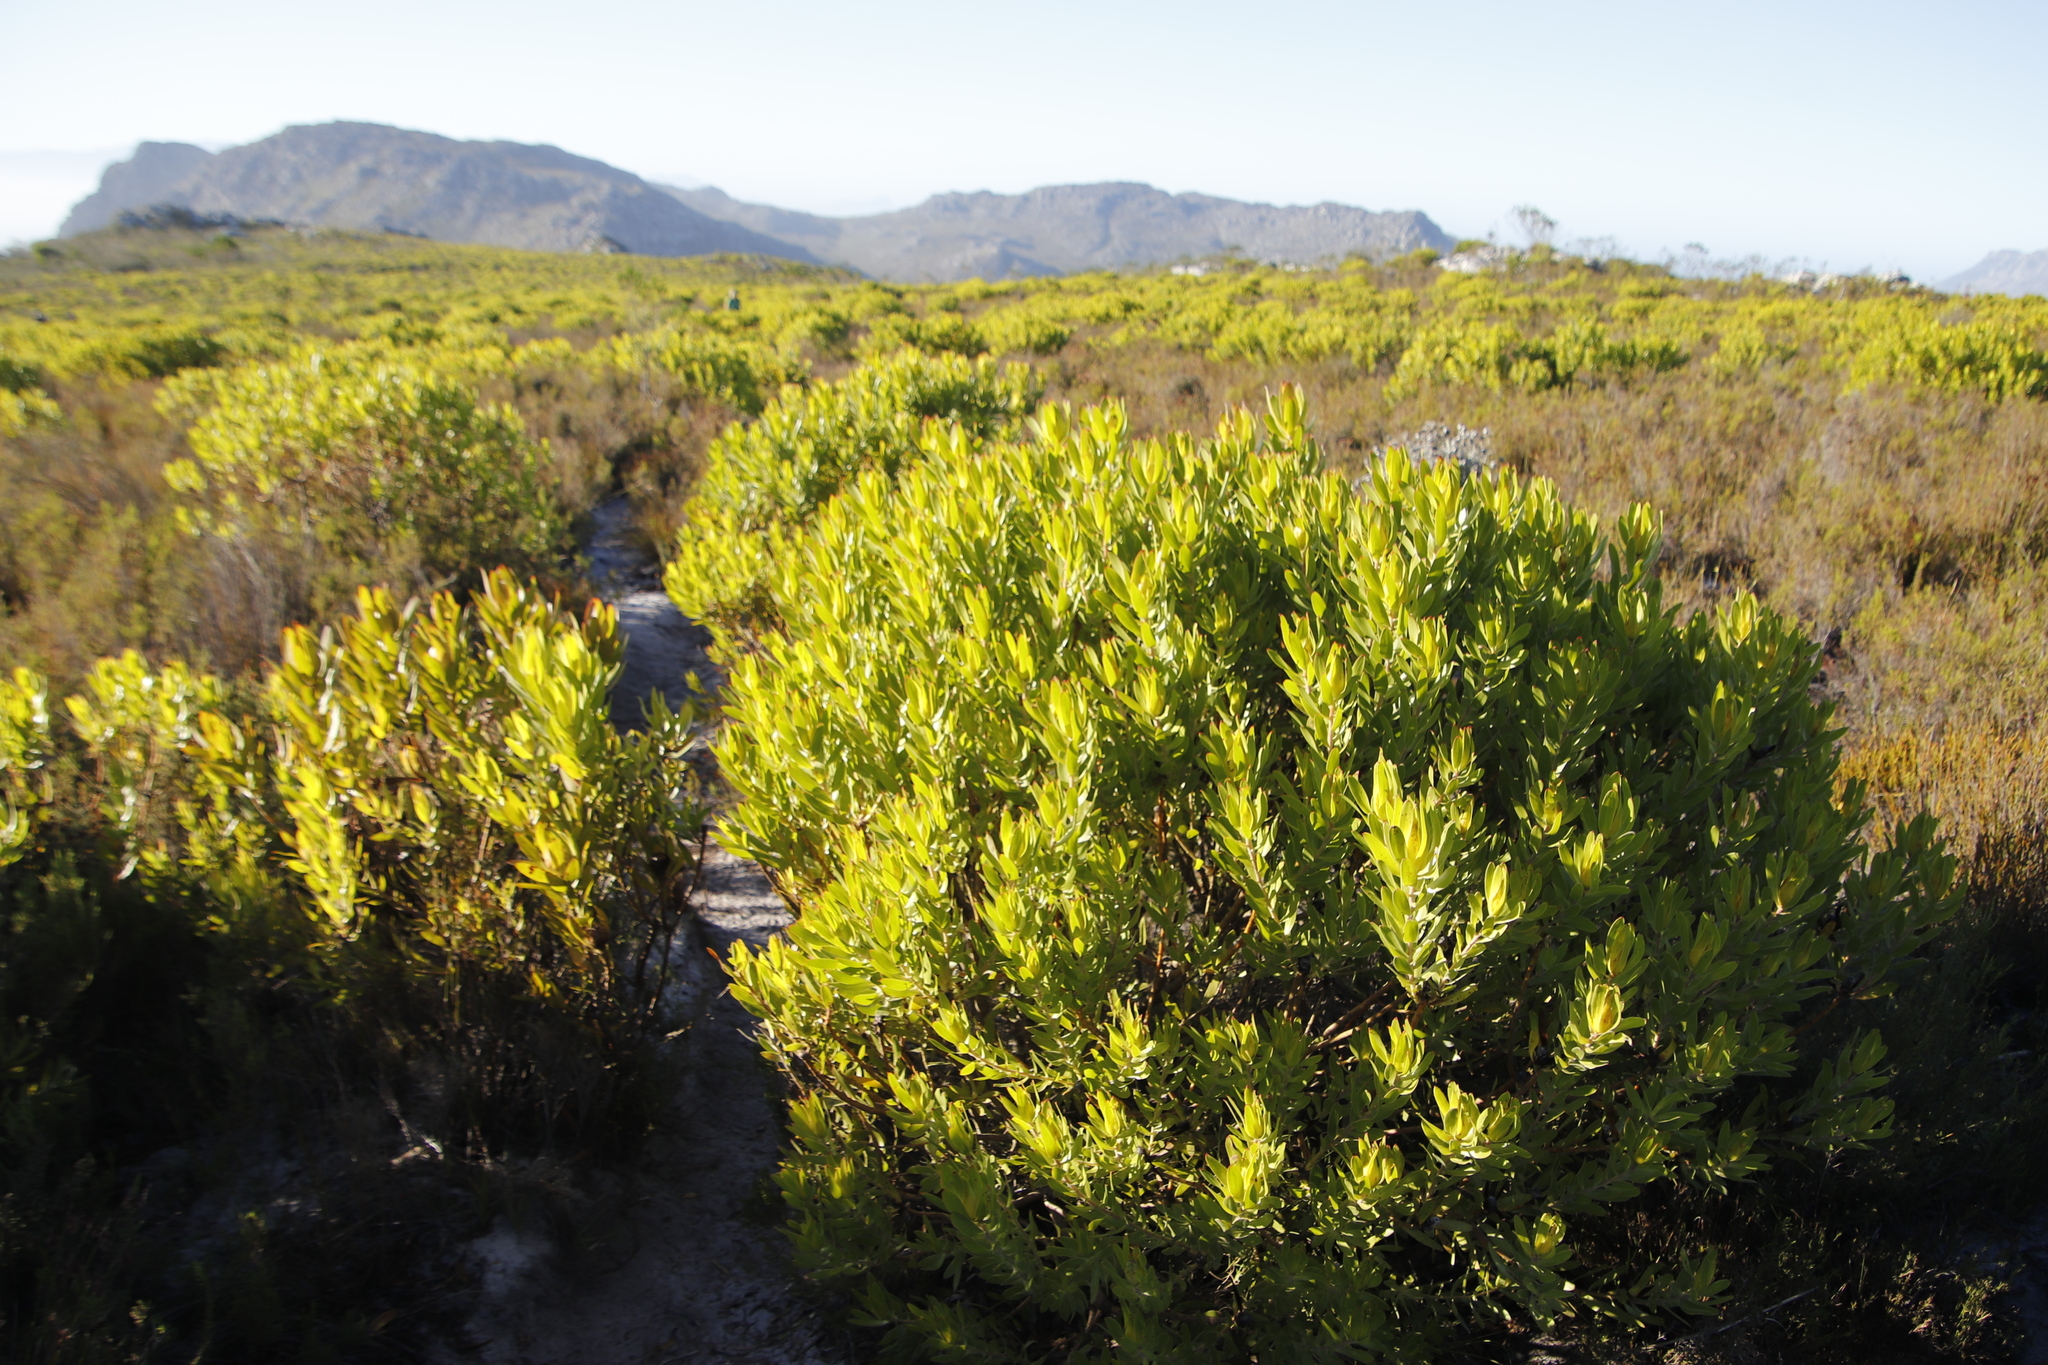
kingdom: Plantae
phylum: Tracheophyta
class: Magnoliopsida
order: Proteales
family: Proteaceae
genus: Leucadendron
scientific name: Leucadendron laureolum
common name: Golden sunshinebush
